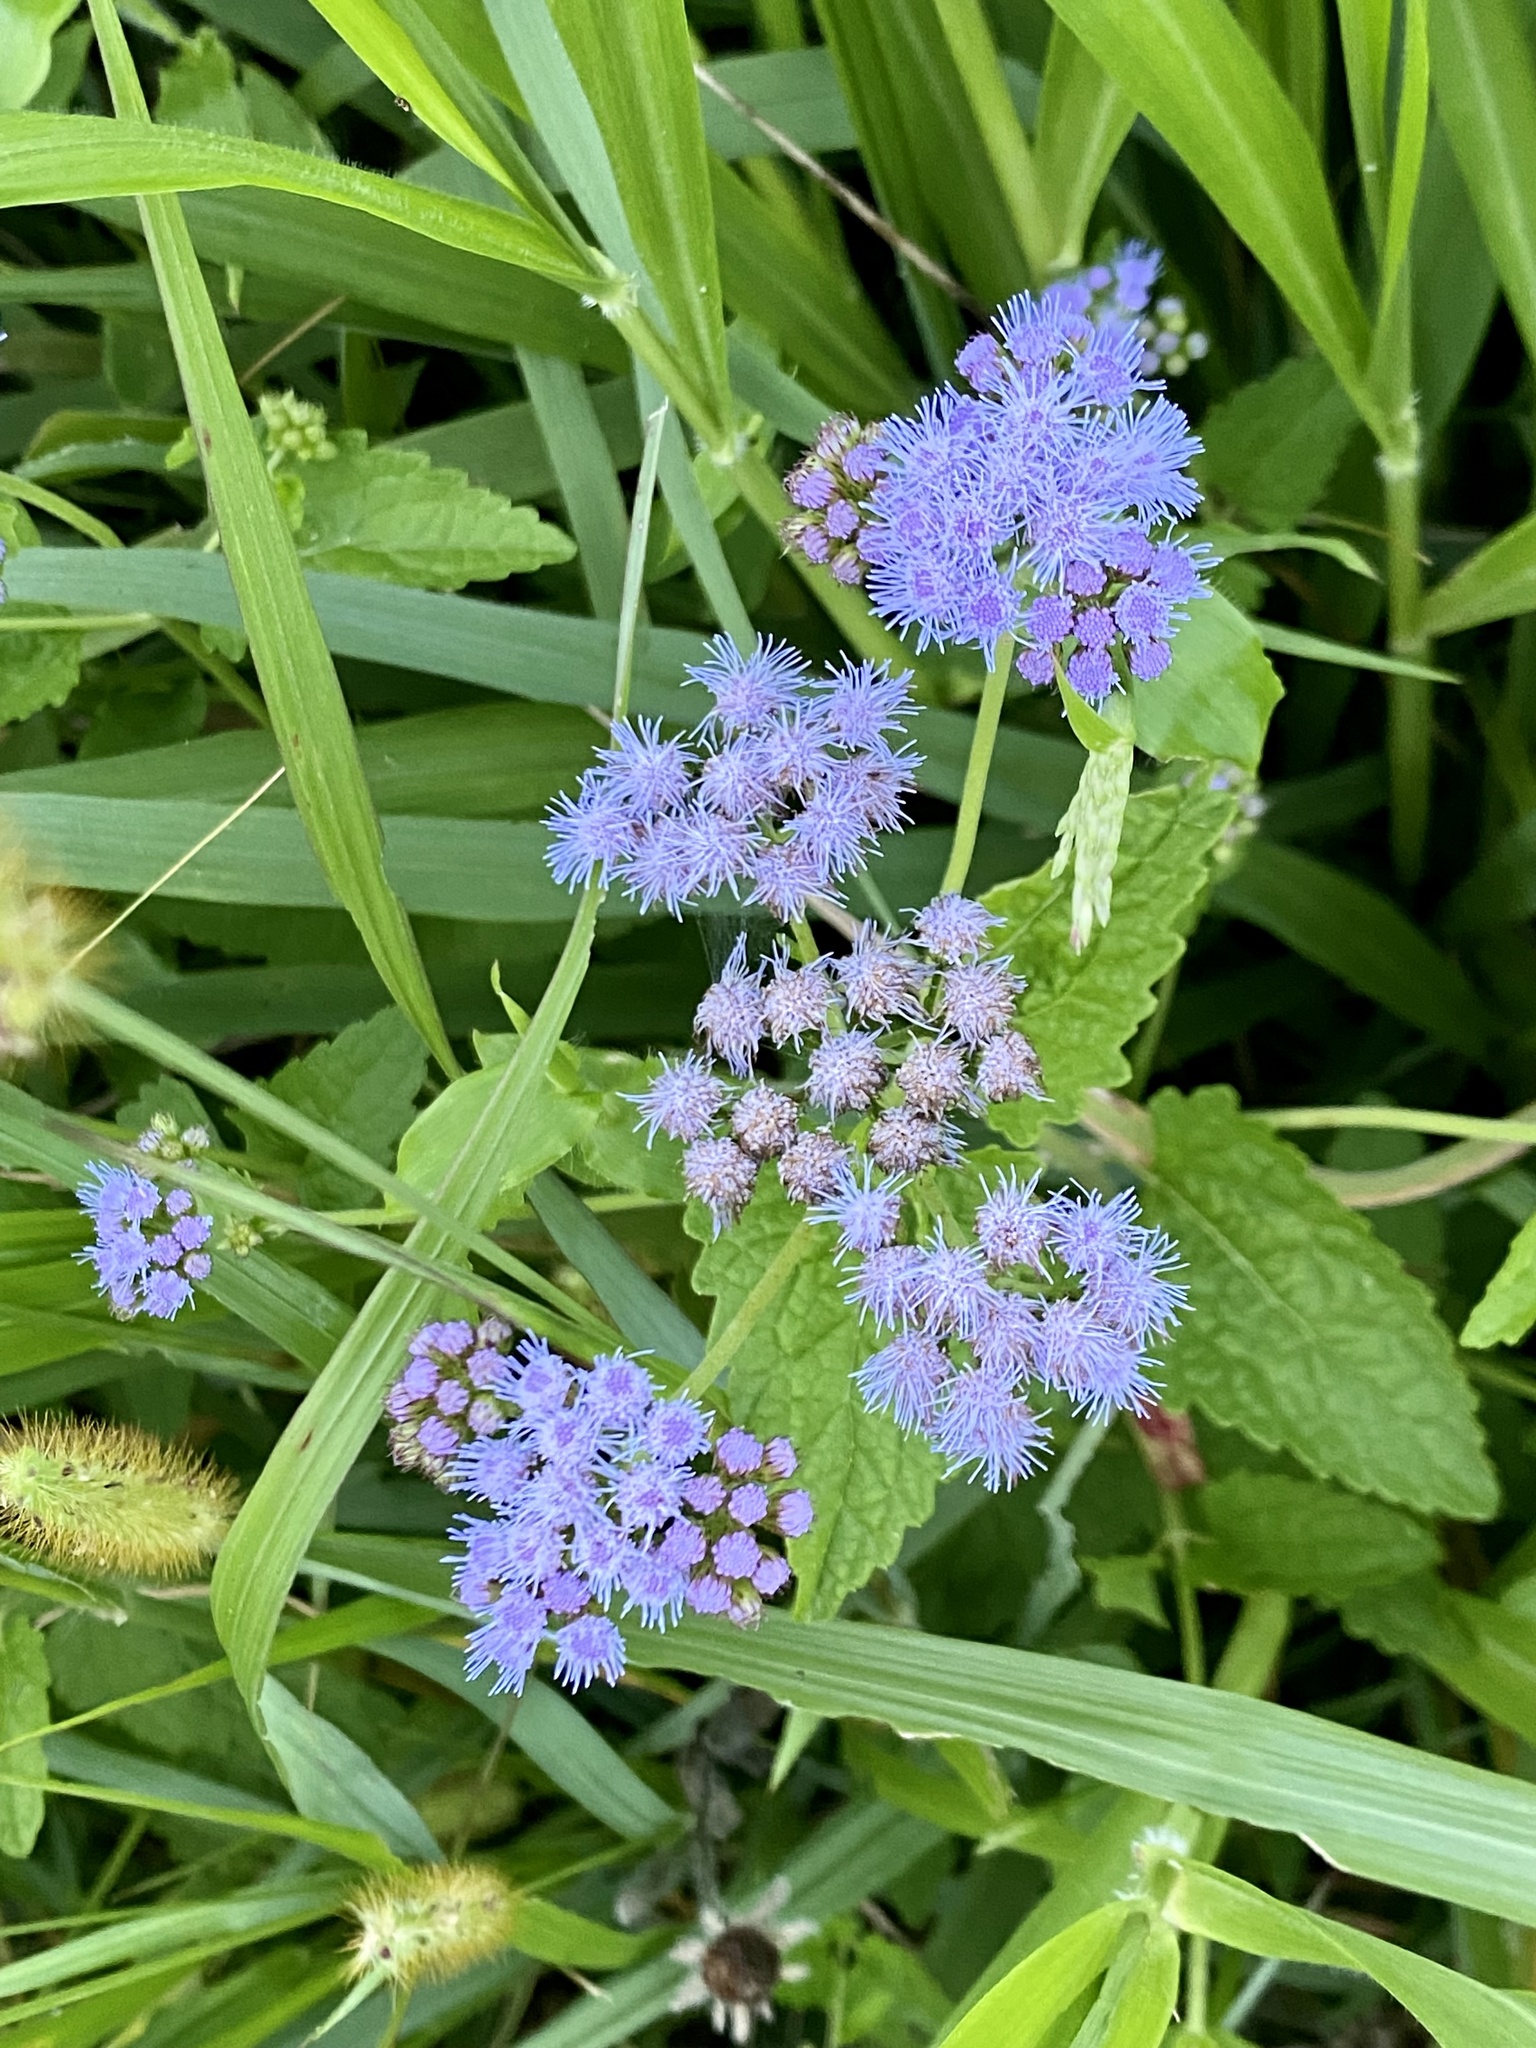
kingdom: Plantae
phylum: Tracheophyta
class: Magnoliopsida
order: Asterales
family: Asteraceae
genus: Conoclinium
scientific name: Conoclinium coelestinum
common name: Blue mistflower
